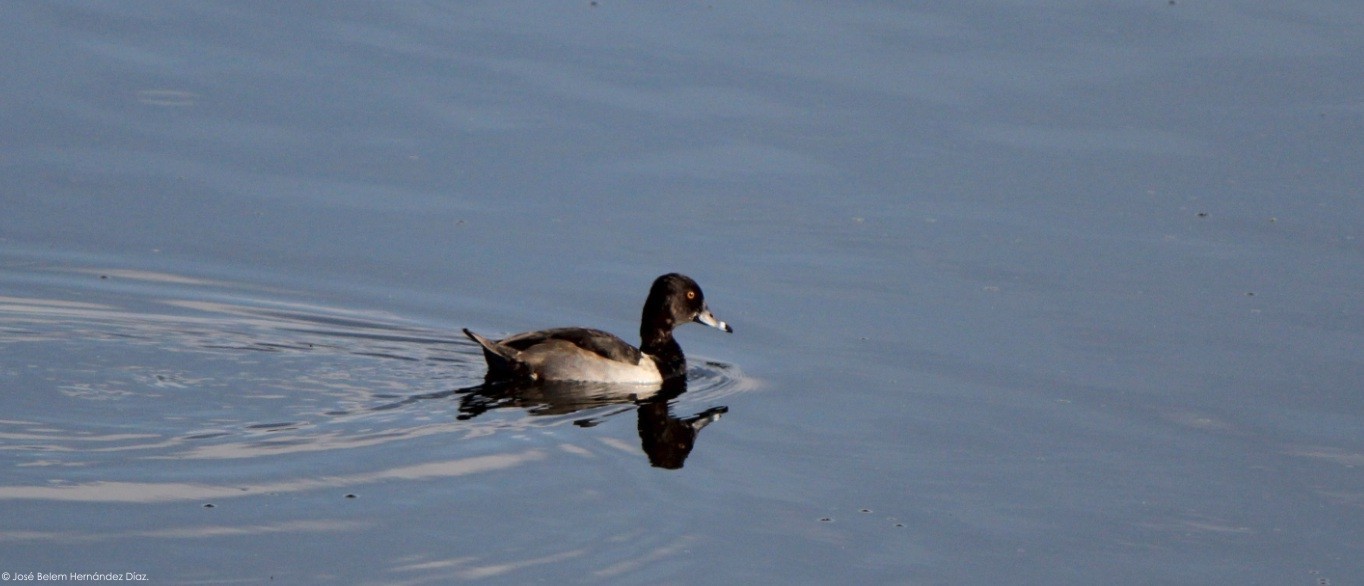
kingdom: Animalia
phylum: Chordata
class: Aves
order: Anseriformes
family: Anatidae
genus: Aythya
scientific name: Aythya collaris
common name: Ring-necked duck
